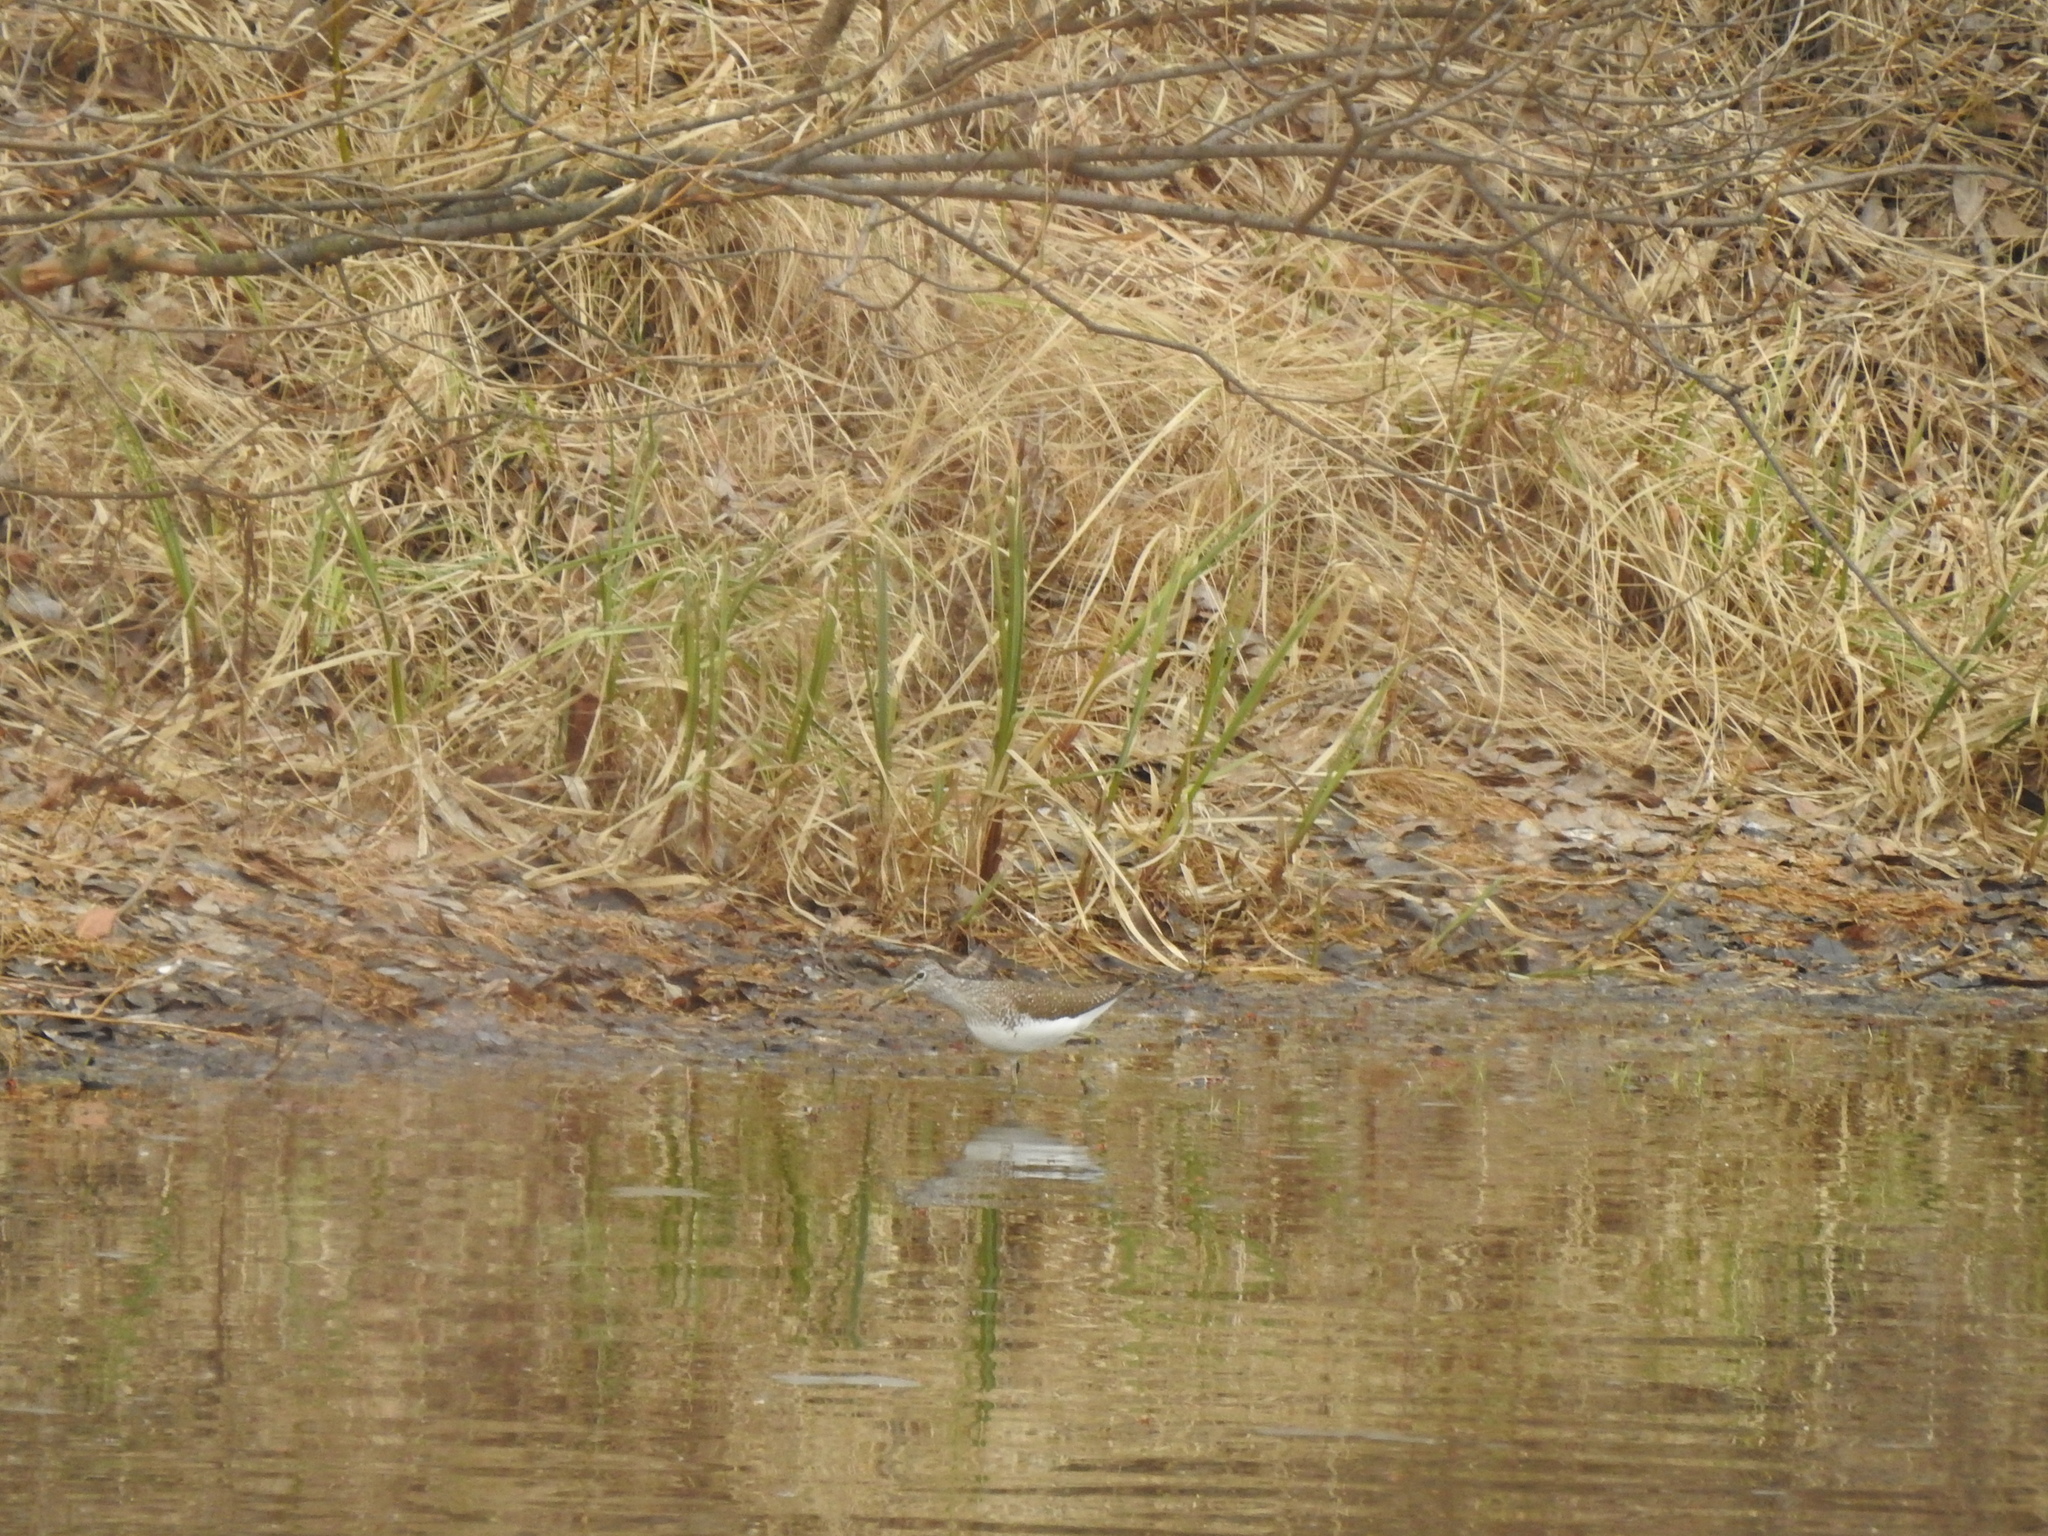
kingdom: Animalia
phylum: Chordata
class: Aves
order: Charadriiformes
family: Scolopacidae
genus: Tringa
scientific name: Tringa ochropus
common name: Green sandpiper
